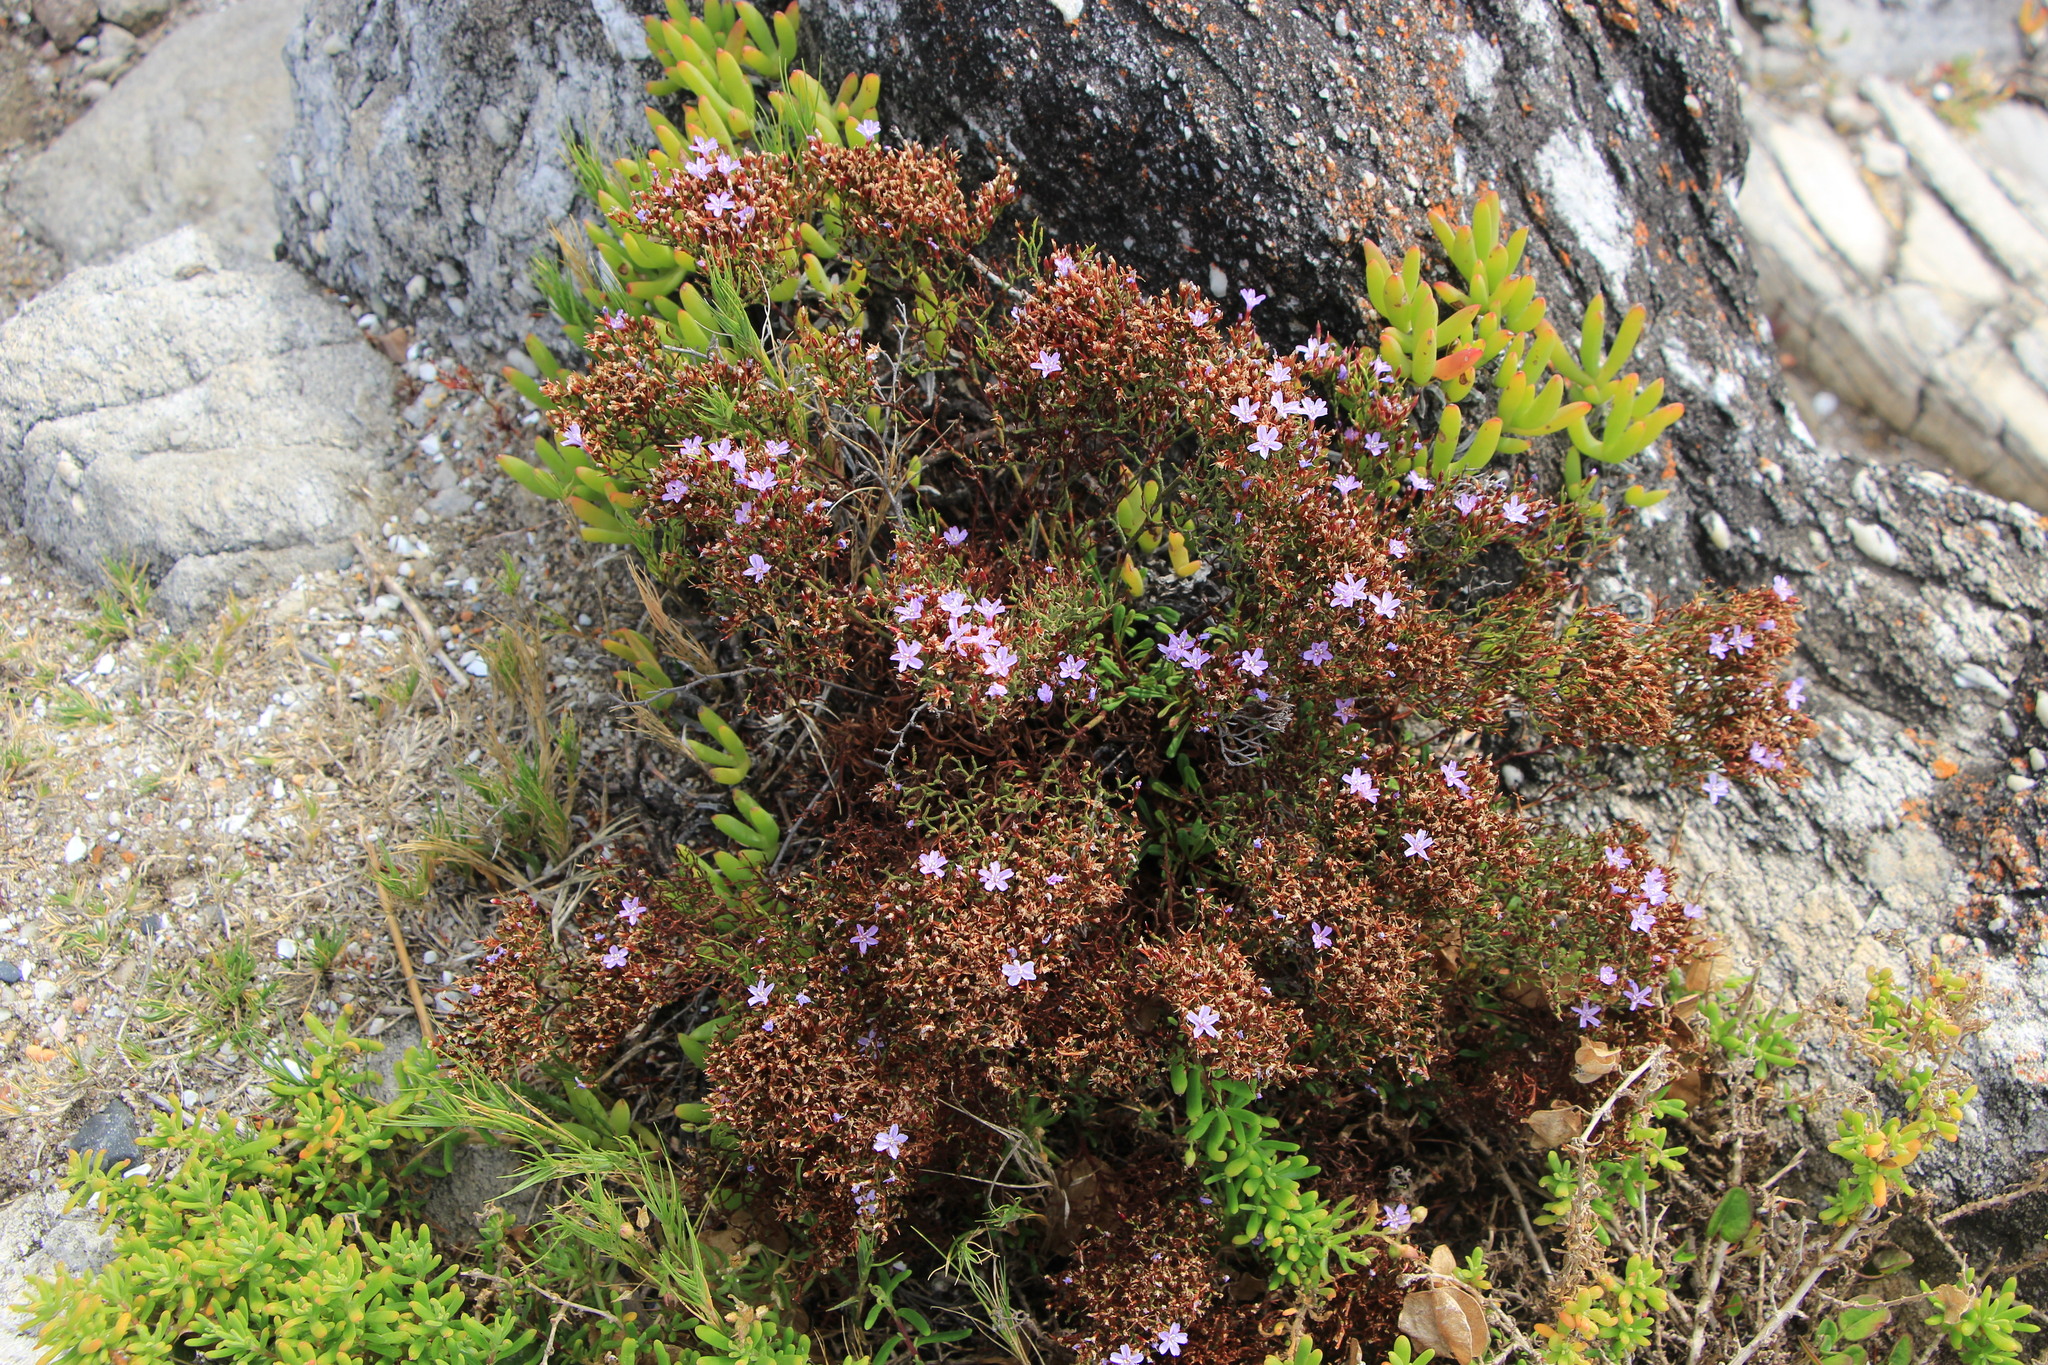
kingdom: Plantae
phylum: Tracheophyta
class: Magnoliopsida
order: Caryophyllales
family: Plumbaginaceae
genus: Limonium
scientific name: Limonium scabrum
